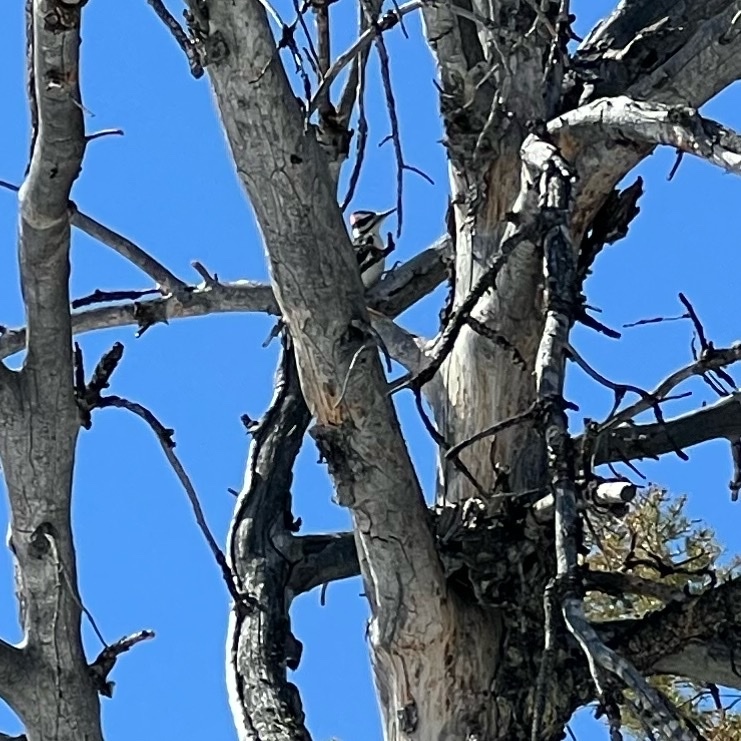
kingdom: Animalia
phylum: Chordata
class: Aves
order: Piciformes
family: Picidae
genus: Leuconotopicus
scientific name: Leuconotopicus villosus
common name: Hairy woodpecker
